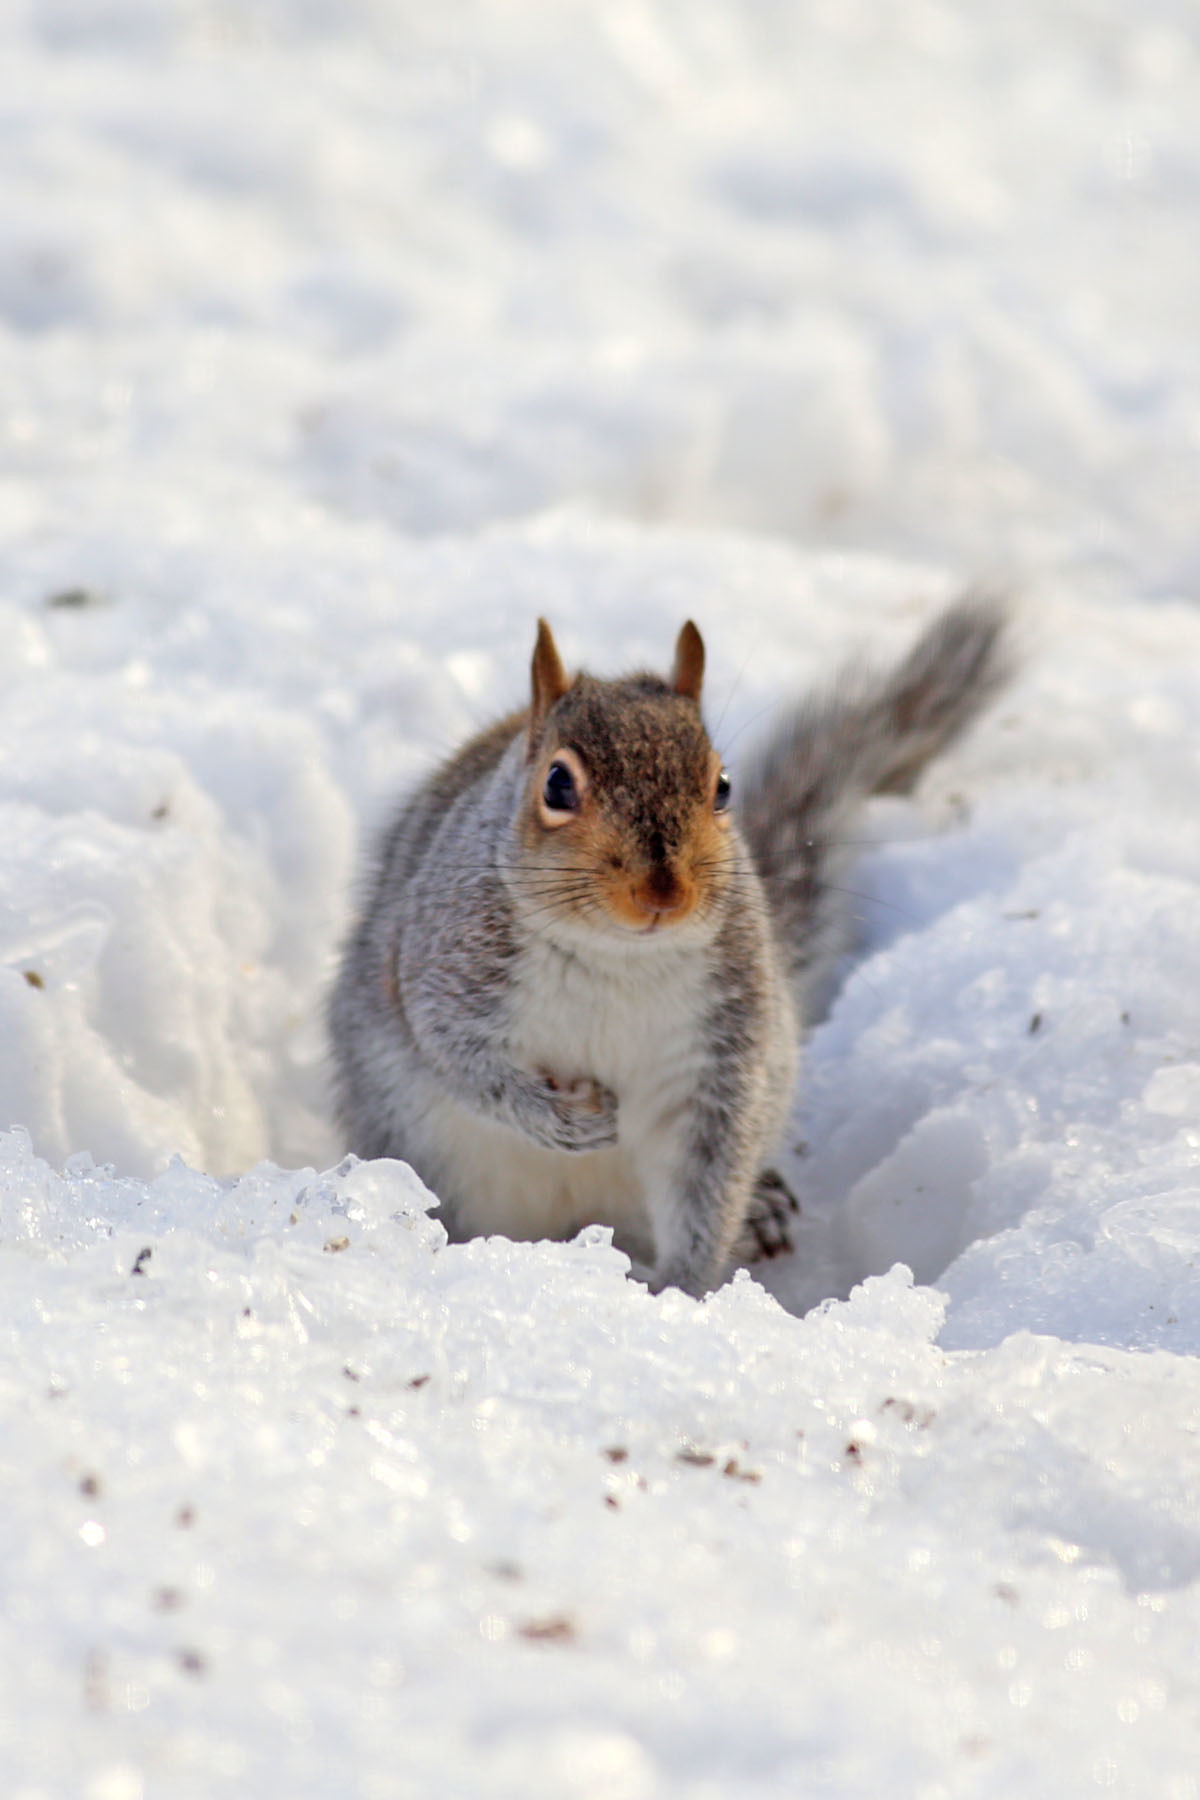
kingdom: Animalia
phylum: Chordata
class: Mammalia
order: Rodentia
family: Sciuridae
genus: Sciurus
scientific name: Sciurus carolinensis
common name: Eastern gray squirrel
